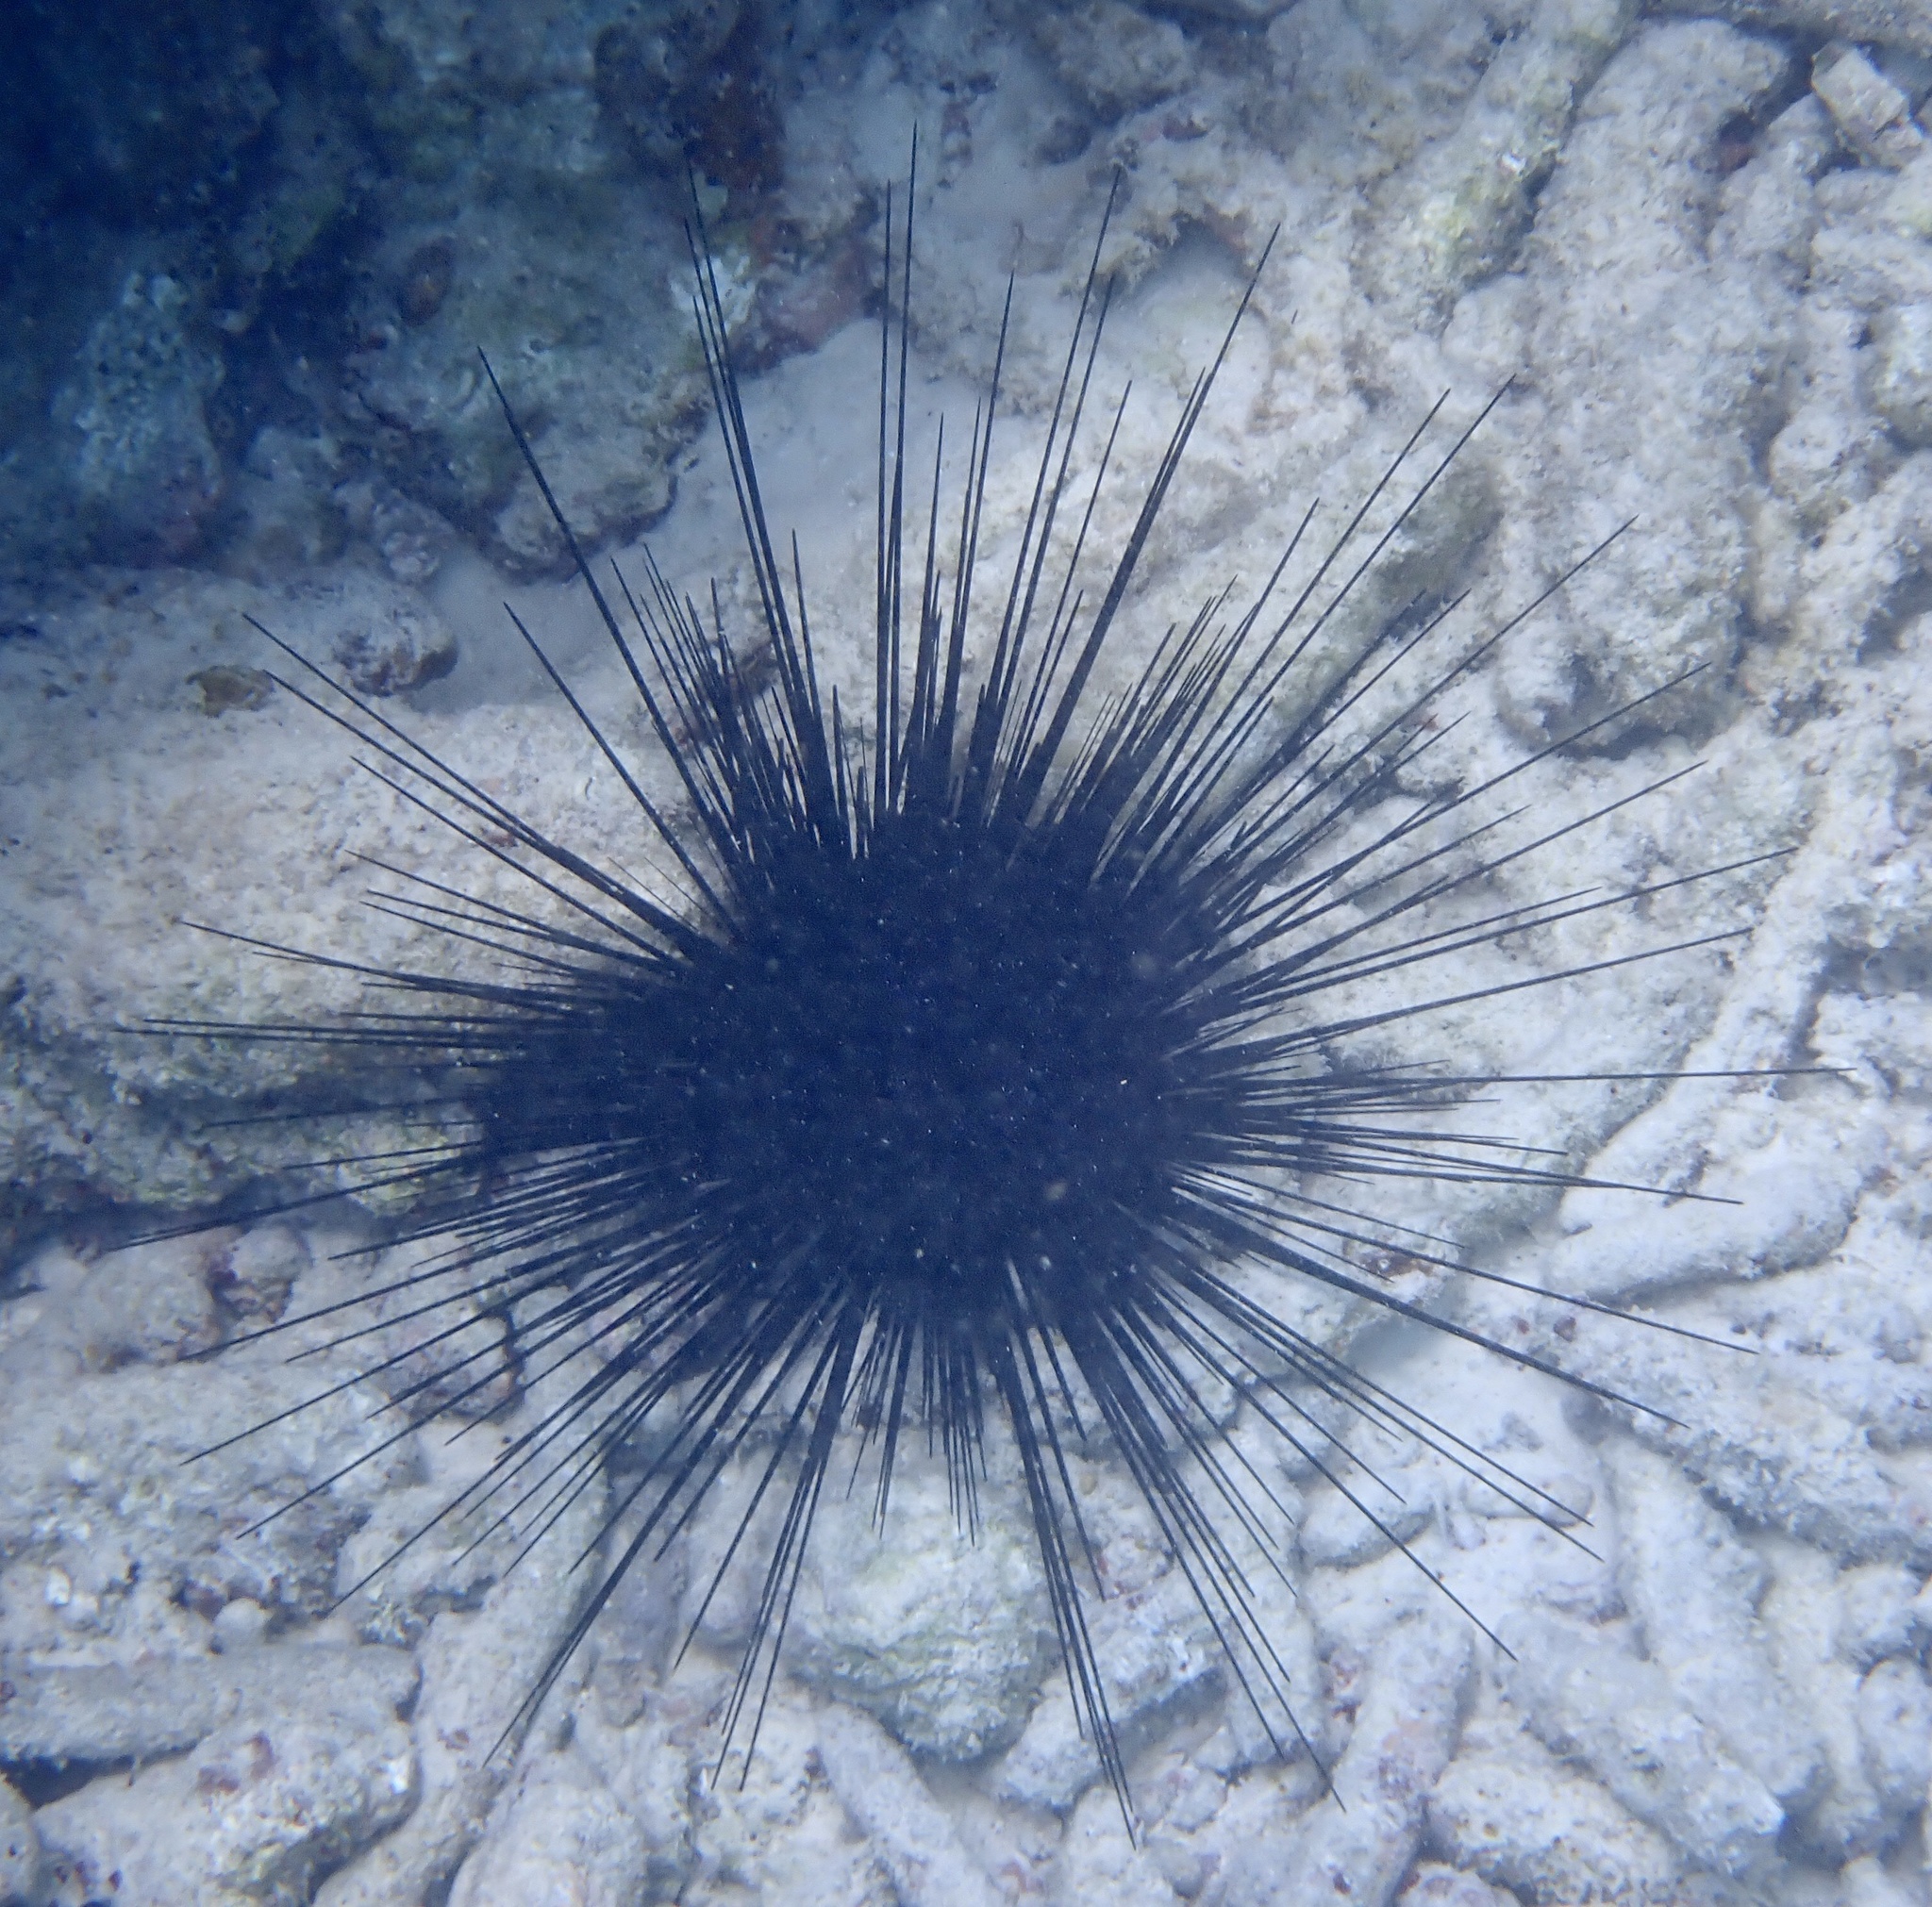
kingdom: Animalia
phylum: Echinodermata
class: Echinoidea
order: Diadematoida
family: Diadematidae
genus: Diadema
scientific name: Diadema antillarum
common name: Spiny urchin
